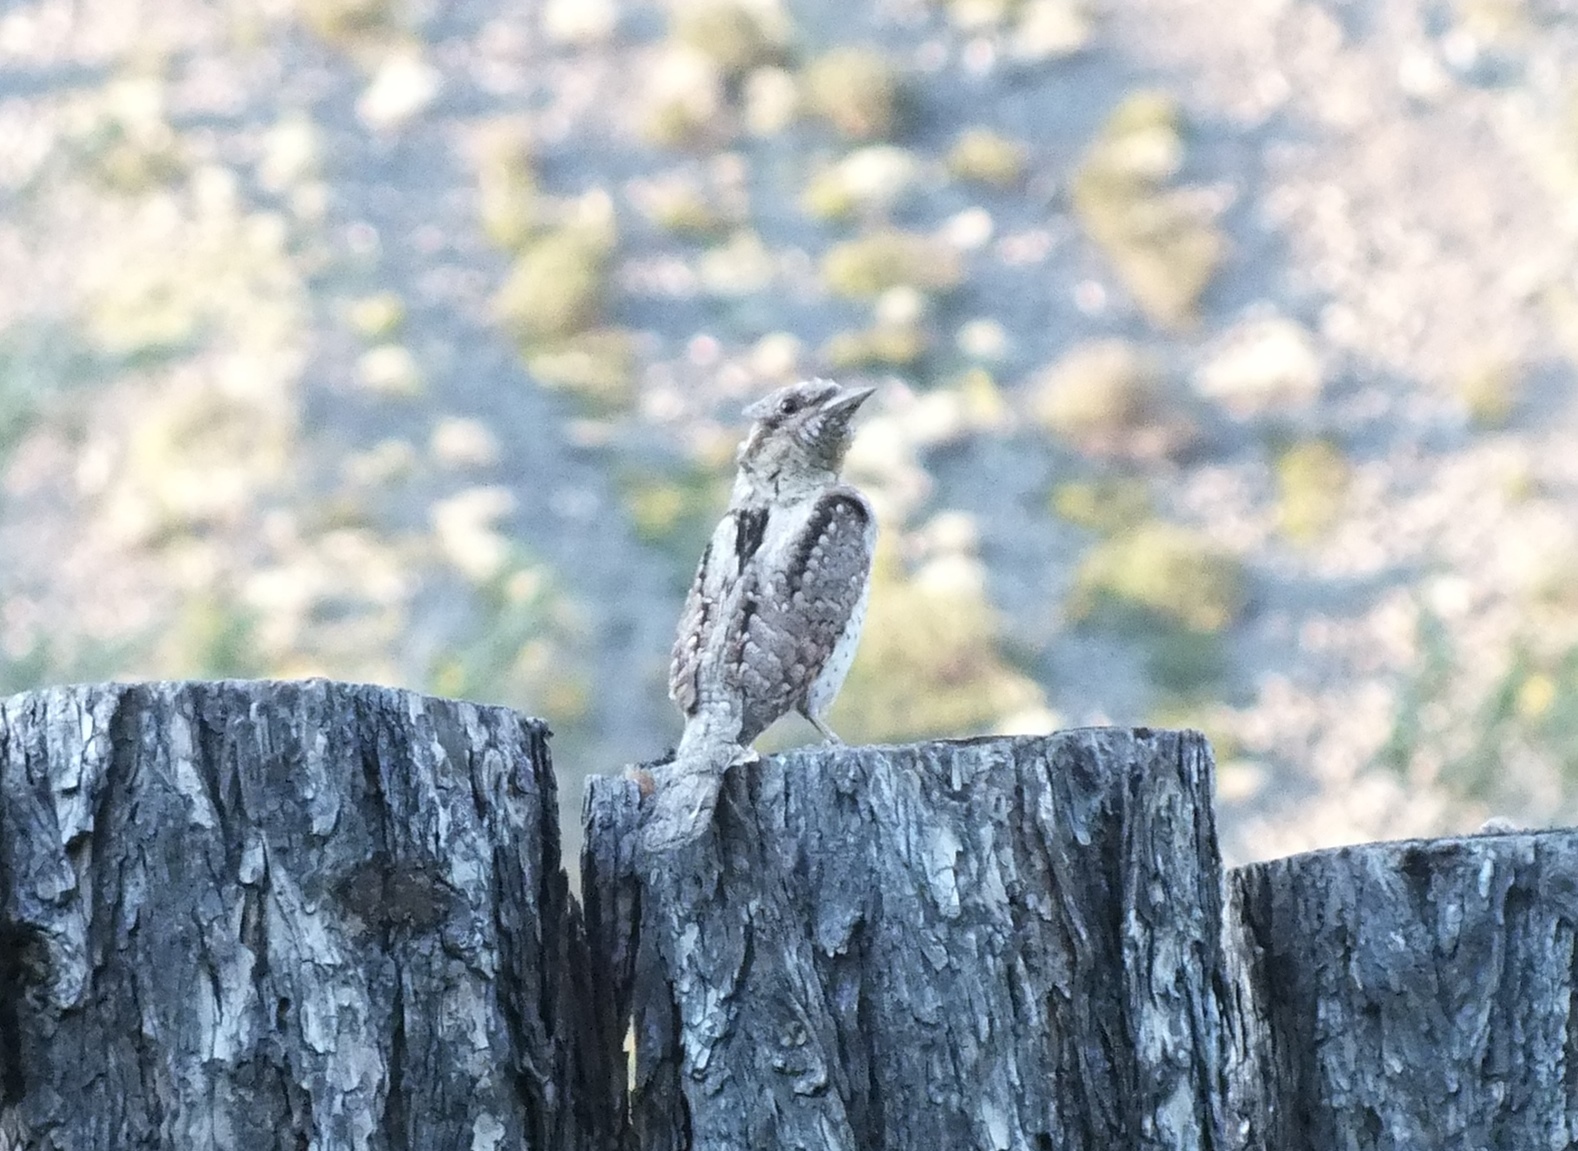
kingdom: Animalia
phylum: Chordata
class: Aves
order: Piciformes
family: Picidae
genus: Jynx
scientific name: Jynx torquilla
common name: Eurasian wryneck
